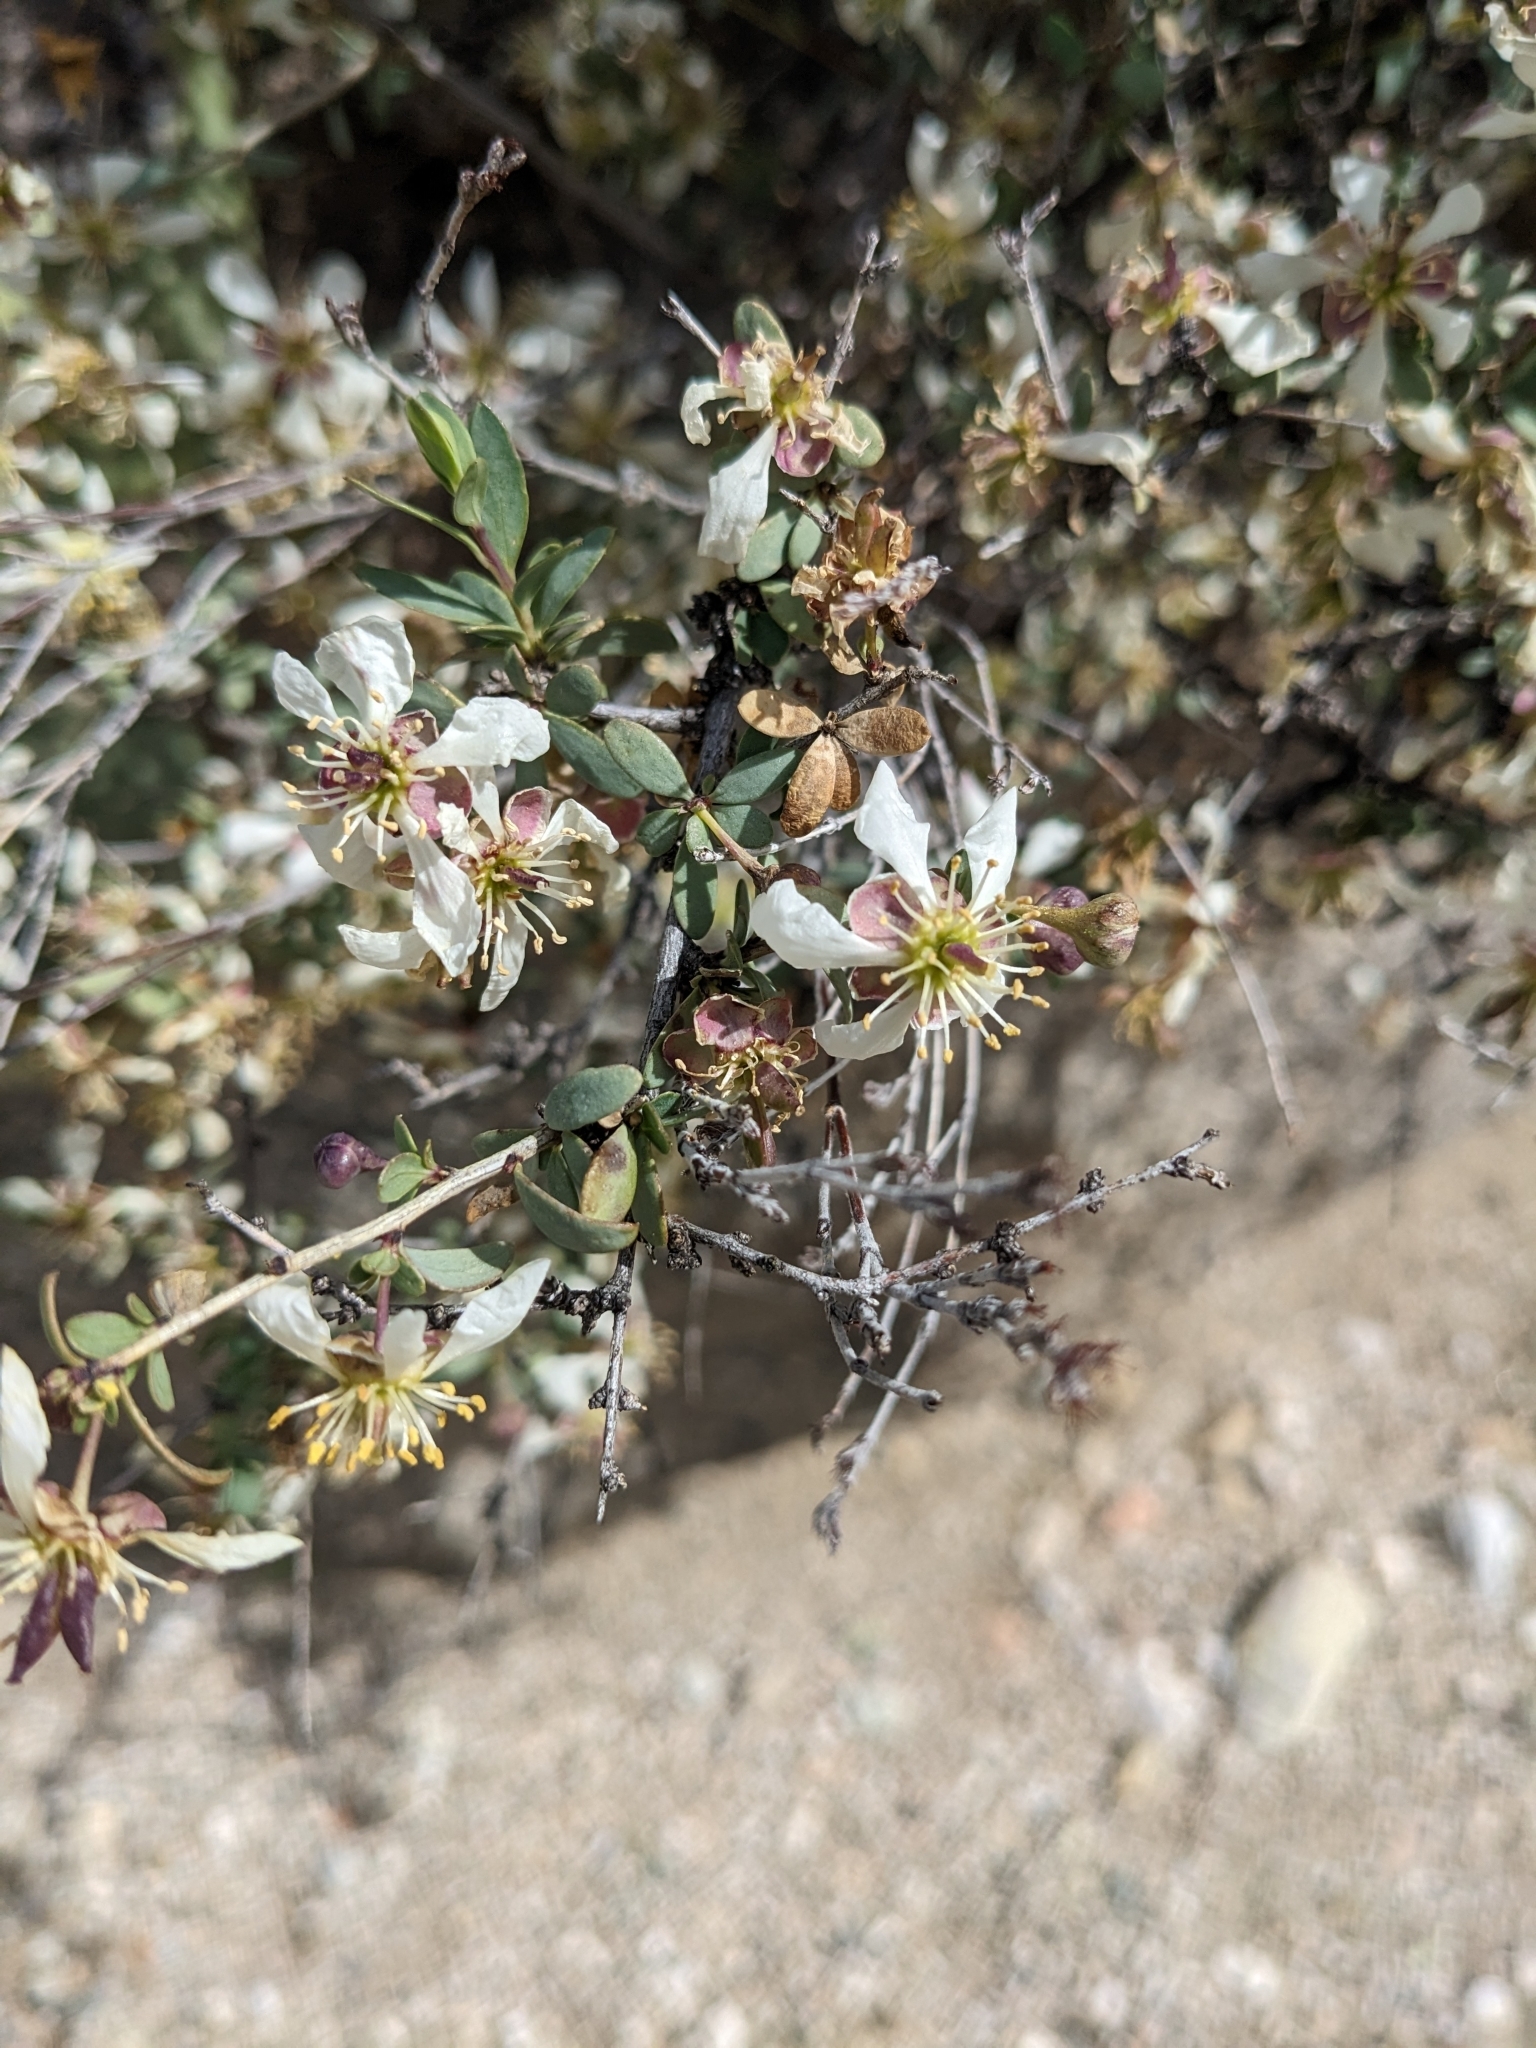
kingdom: Plantae
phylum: Tracheophyta
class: Magnoliopsida
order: Crossosomatales
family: Crossosomataceae
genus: Crossosoma
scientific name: Crossosoma bigelovii
